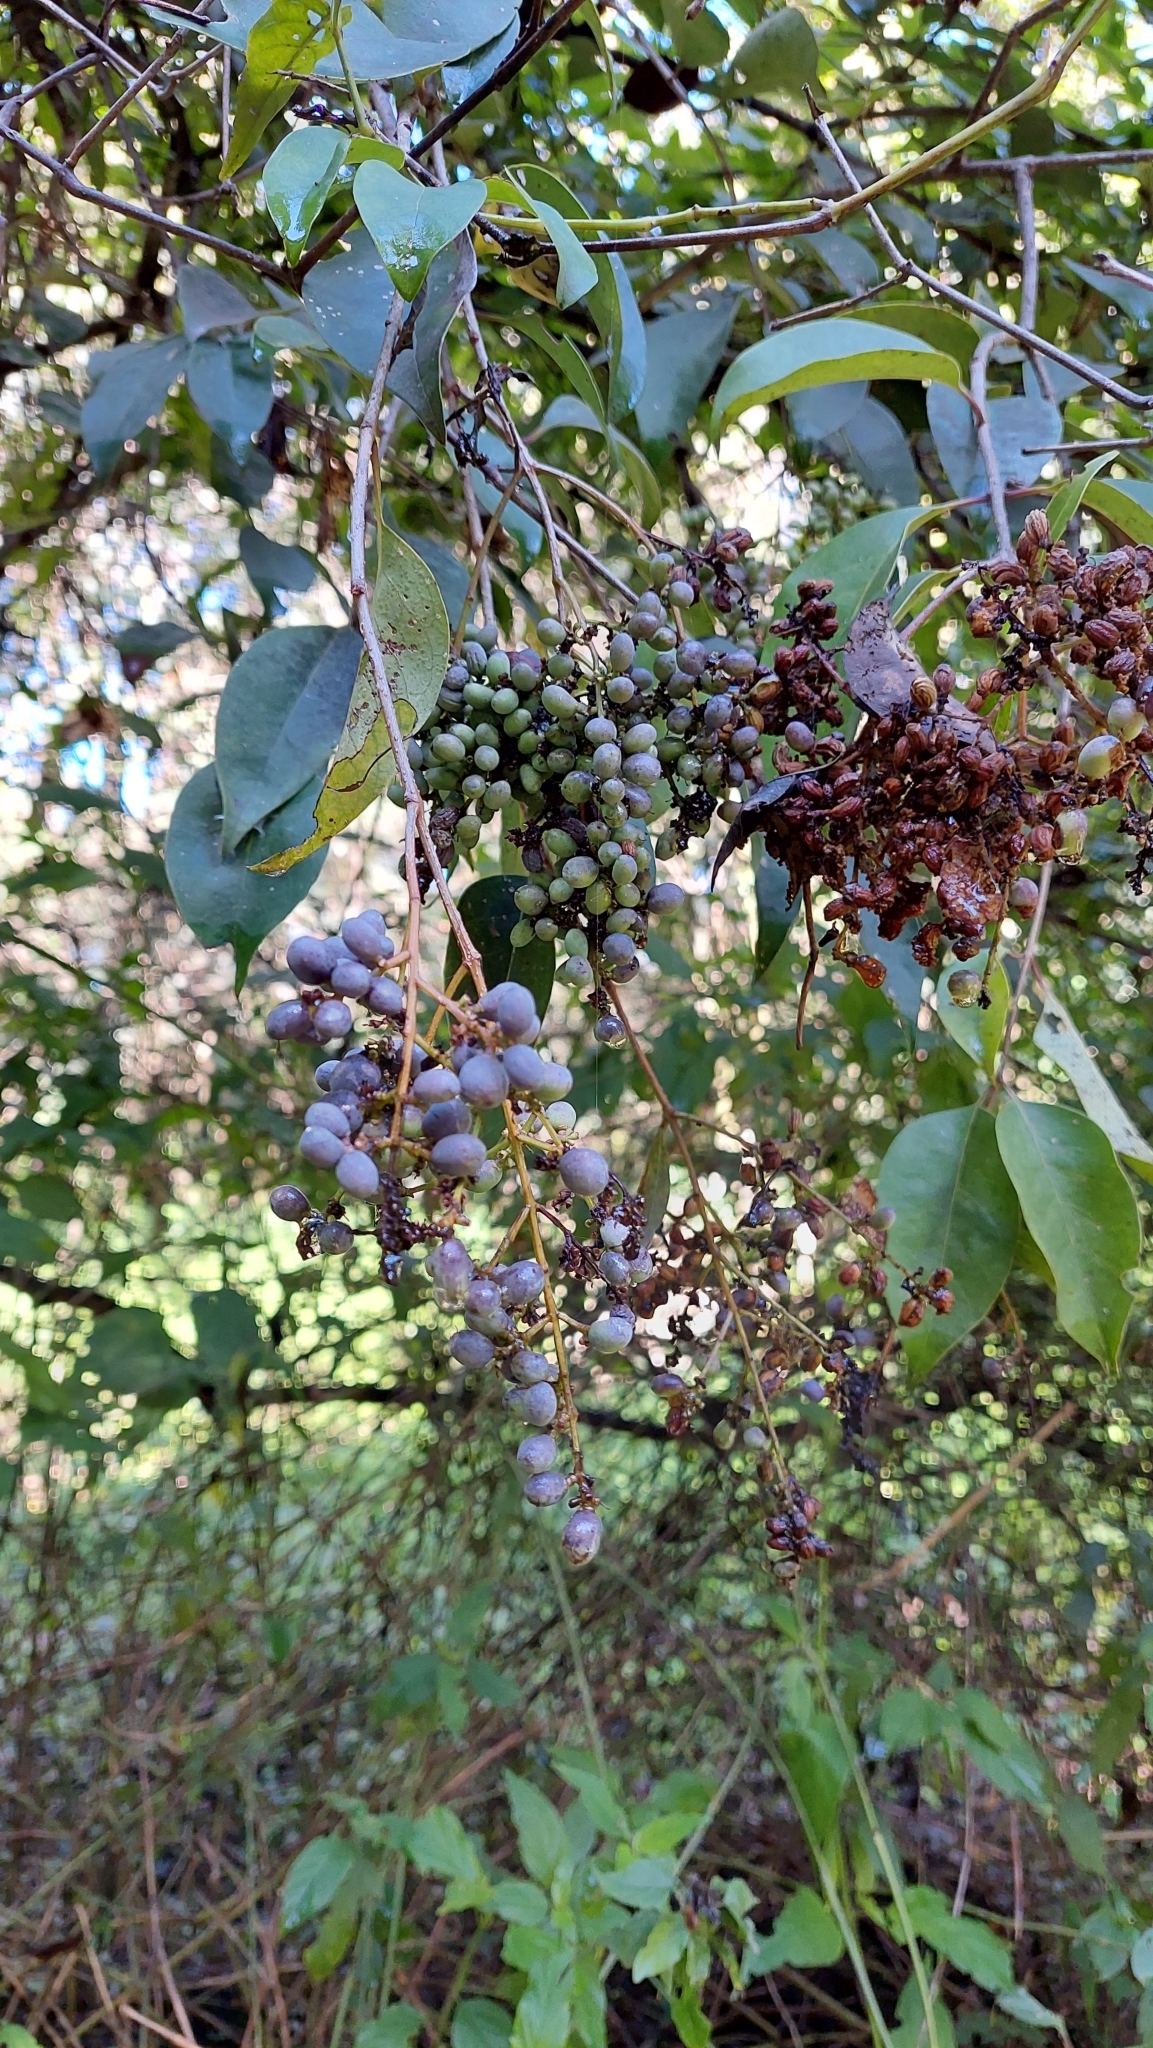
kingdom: Plantae
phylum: Tracheophyta
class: Magnoliopsida
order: Lamiales
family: Oleaceae
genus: Ligustrum
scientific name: Ligustrum lucidum
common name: Glossy privet
